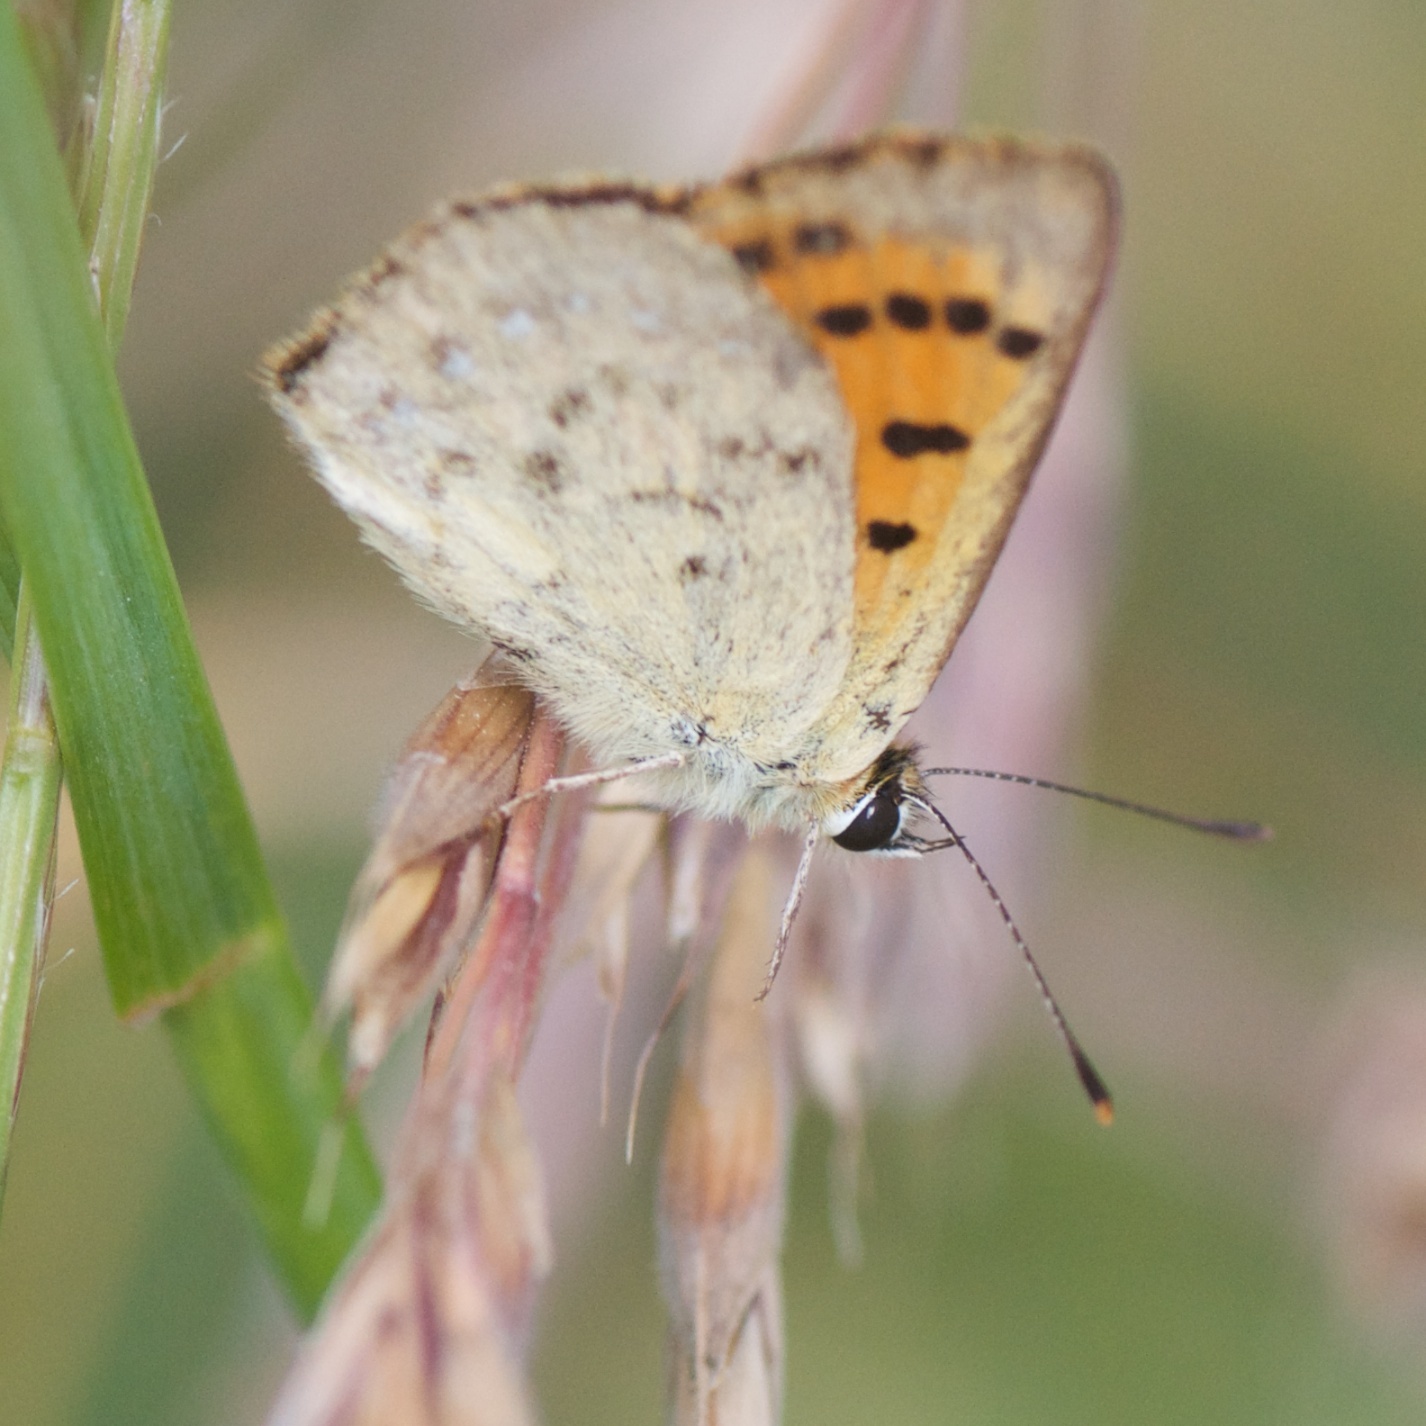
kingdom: Animalia
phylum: Arthropoda
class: Insecta
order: Lepidoptera
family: Lycaenidae
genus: Lycaena
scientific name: Lycaena salustius
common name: North island coastal copper
